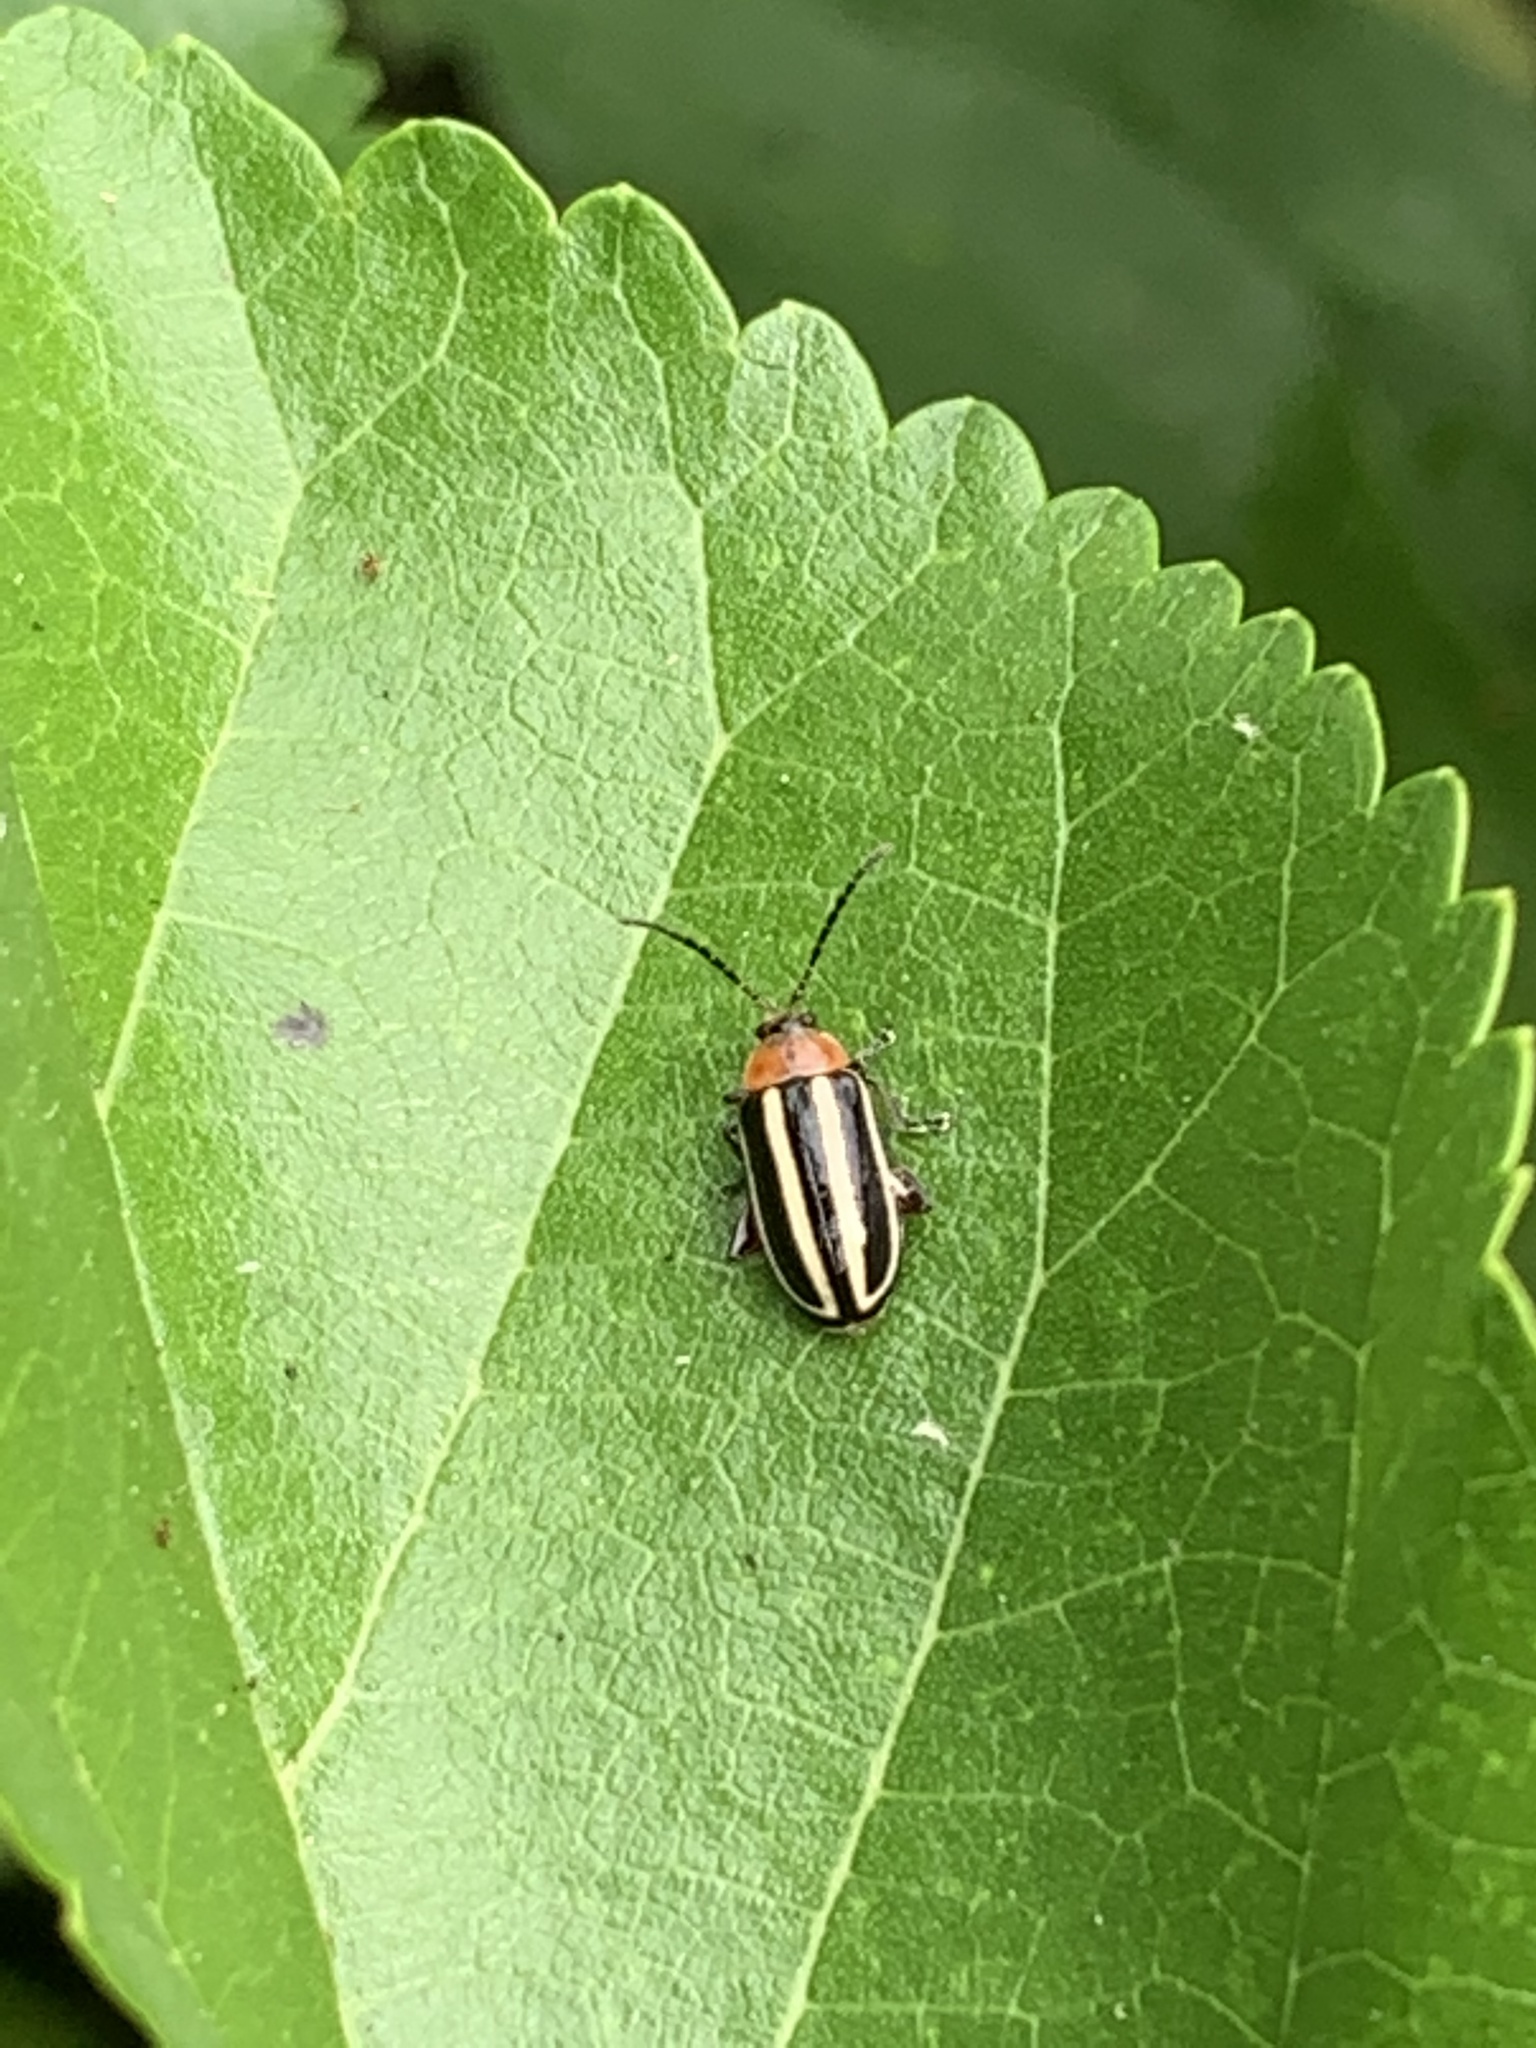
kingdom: Animalia
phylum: Arthropoda
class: Insecta
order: Coleoptera
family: Chrysomelidae
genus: Disonycha
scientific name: Disonycha glabrata
